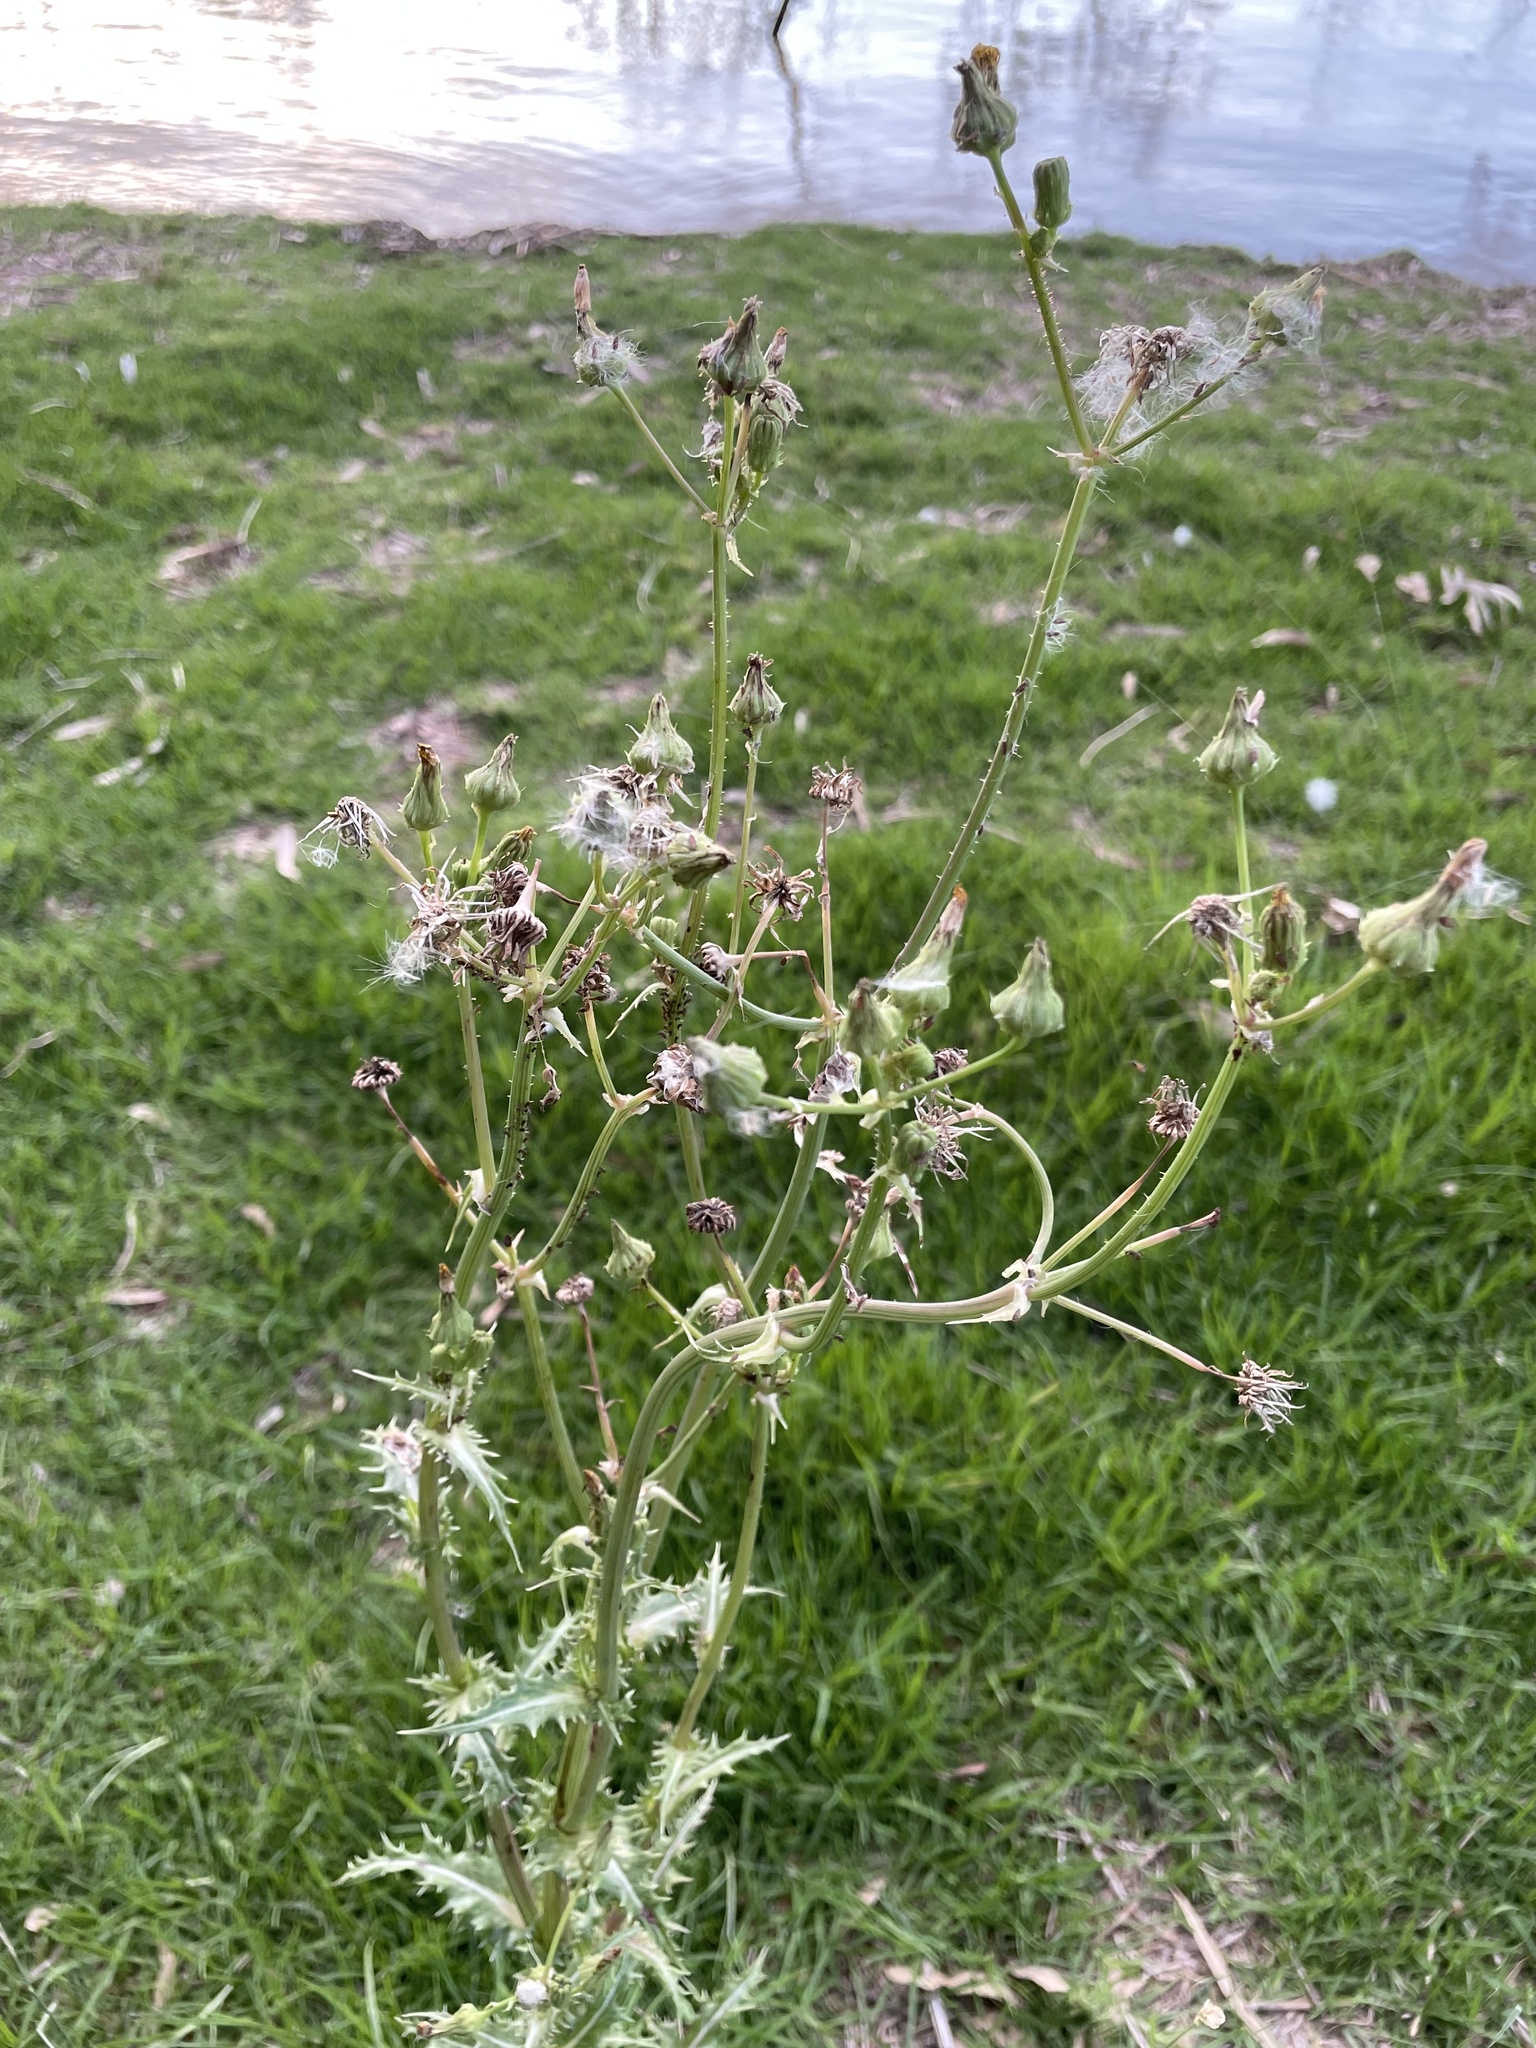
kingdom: Plantae
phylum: Tracheophyta
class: Magnoliopsida
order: Asterales
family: Asteraceae
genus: Sonchus
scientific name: Sonchus asper
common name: Prickly sow-thistle
